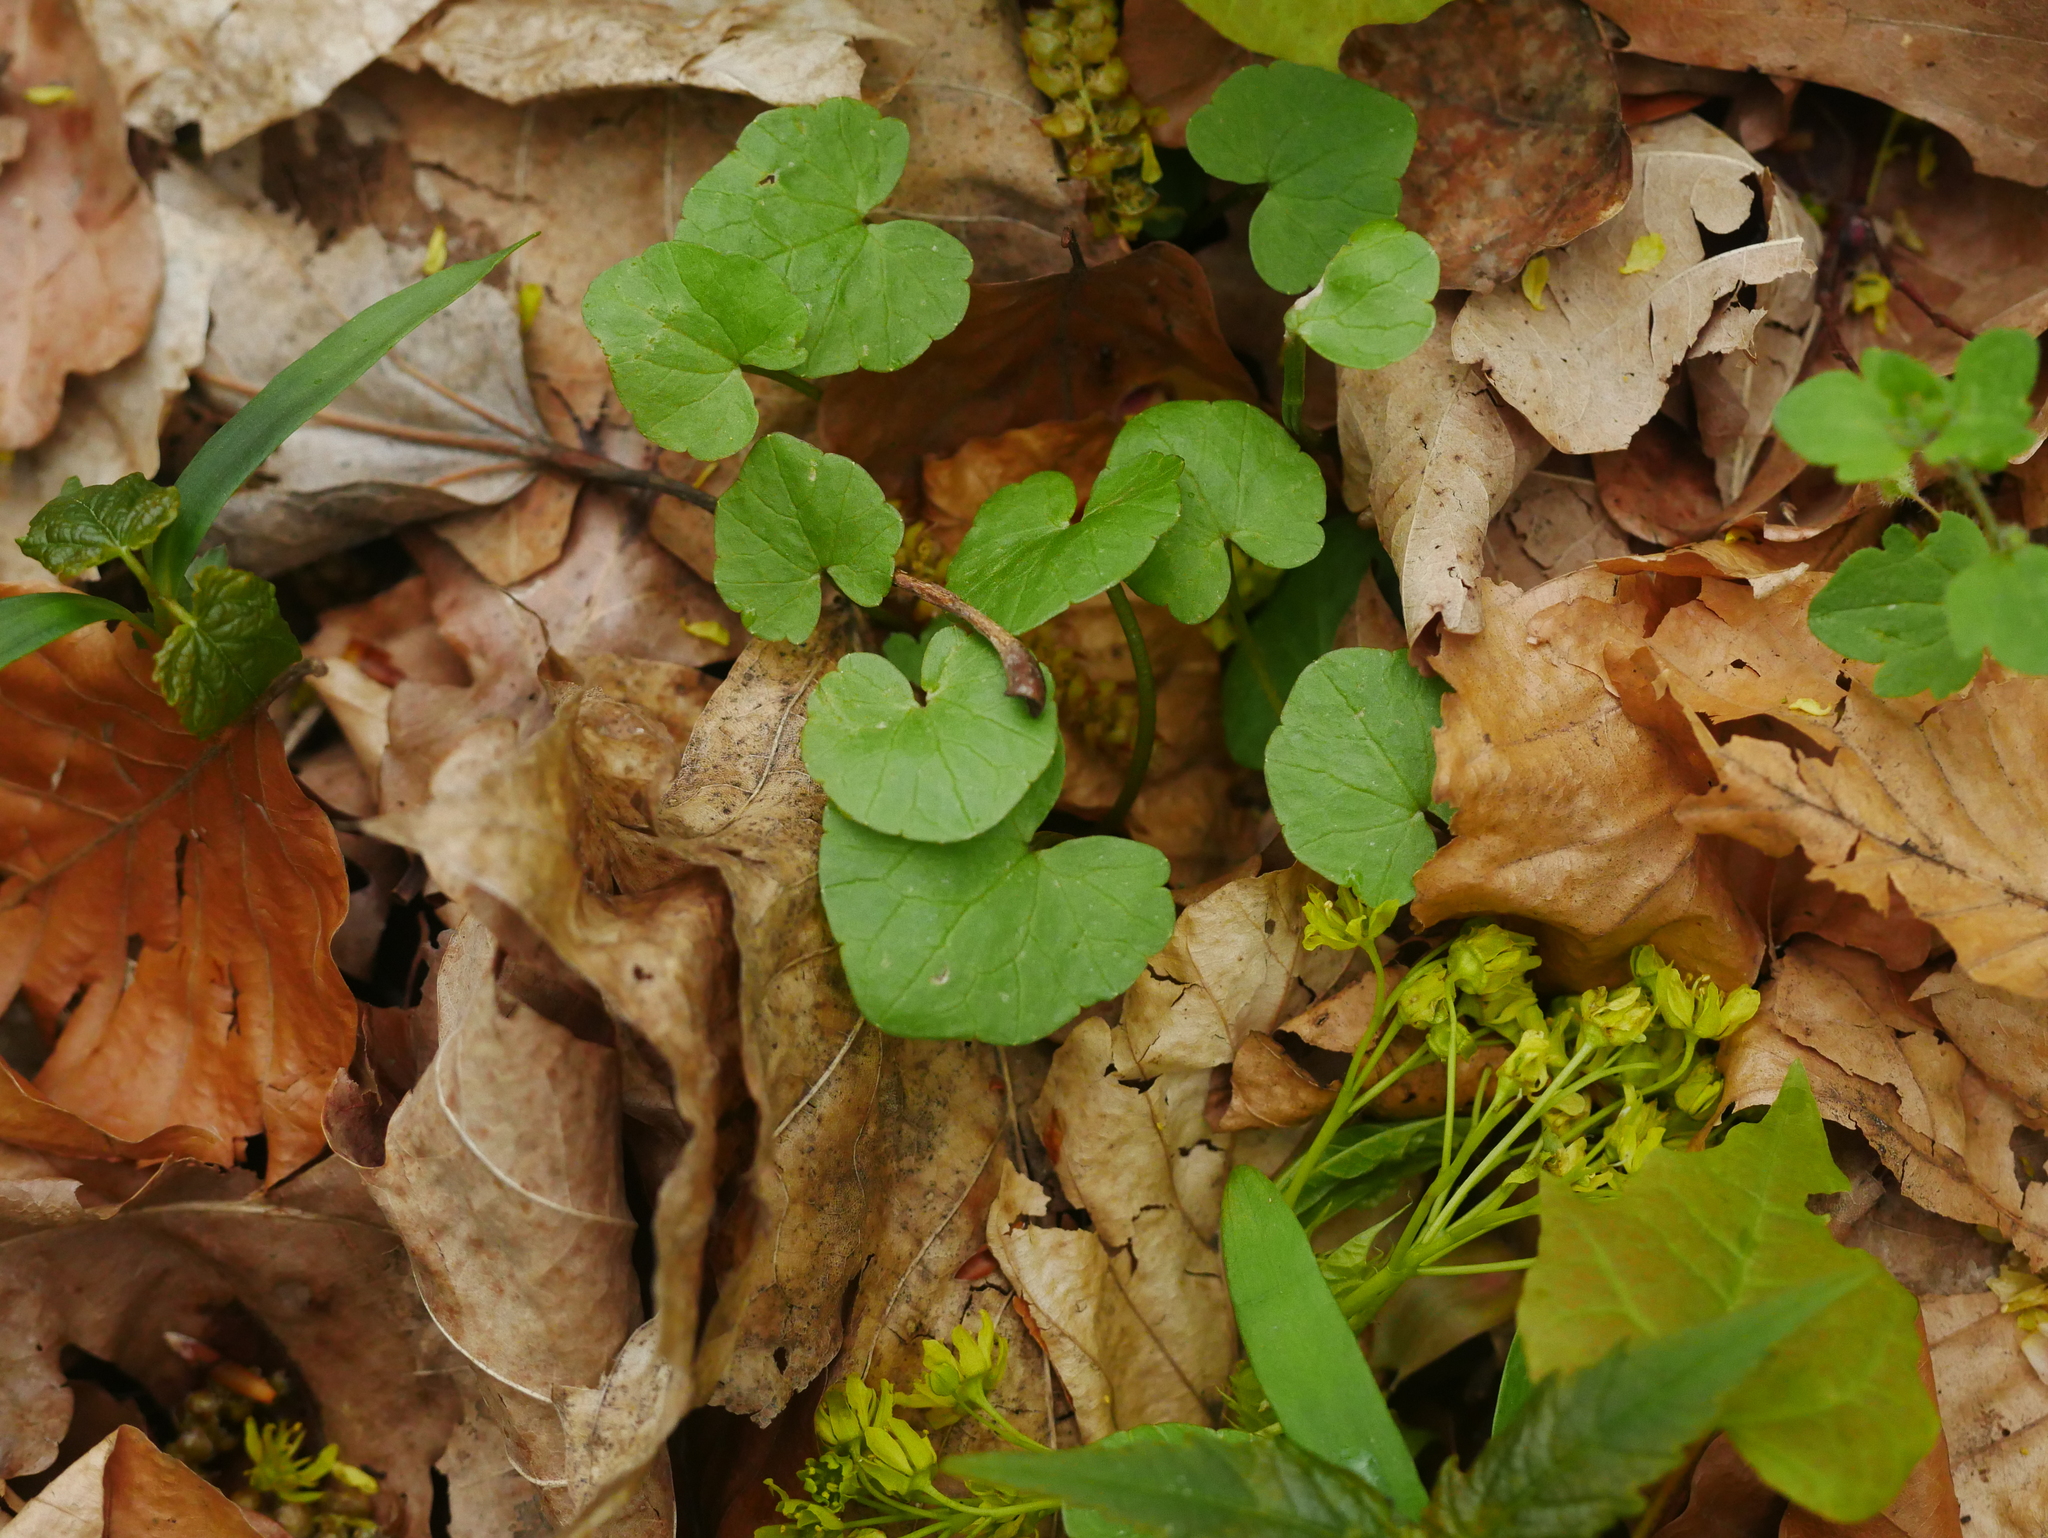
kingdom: Plantae
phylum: Tracheophyta
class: Magnoliopsida
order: Ranunculales
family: Ranunculaceae
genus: Ficaria
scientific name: Ficaria verna
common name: Lesser celandine
